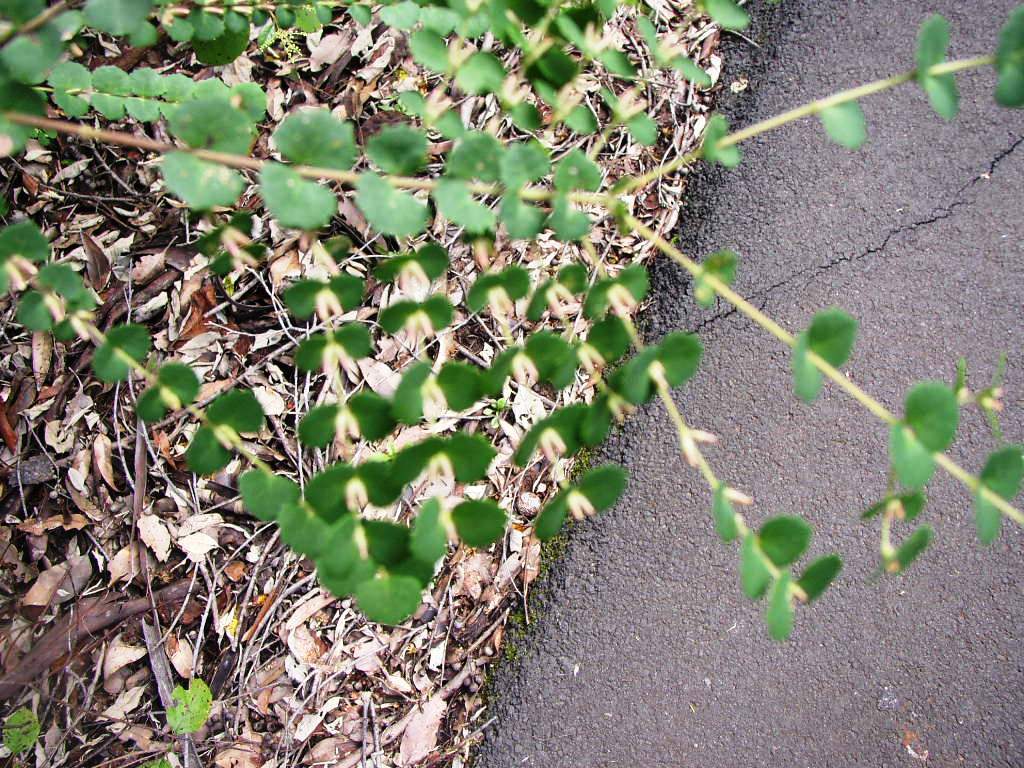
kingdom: Plantae
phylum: Tracheophyta
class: Magnoliopsida
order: Fabales
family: Fabaceae
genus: Bossiaea
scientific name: Bossiaea aquifolium
